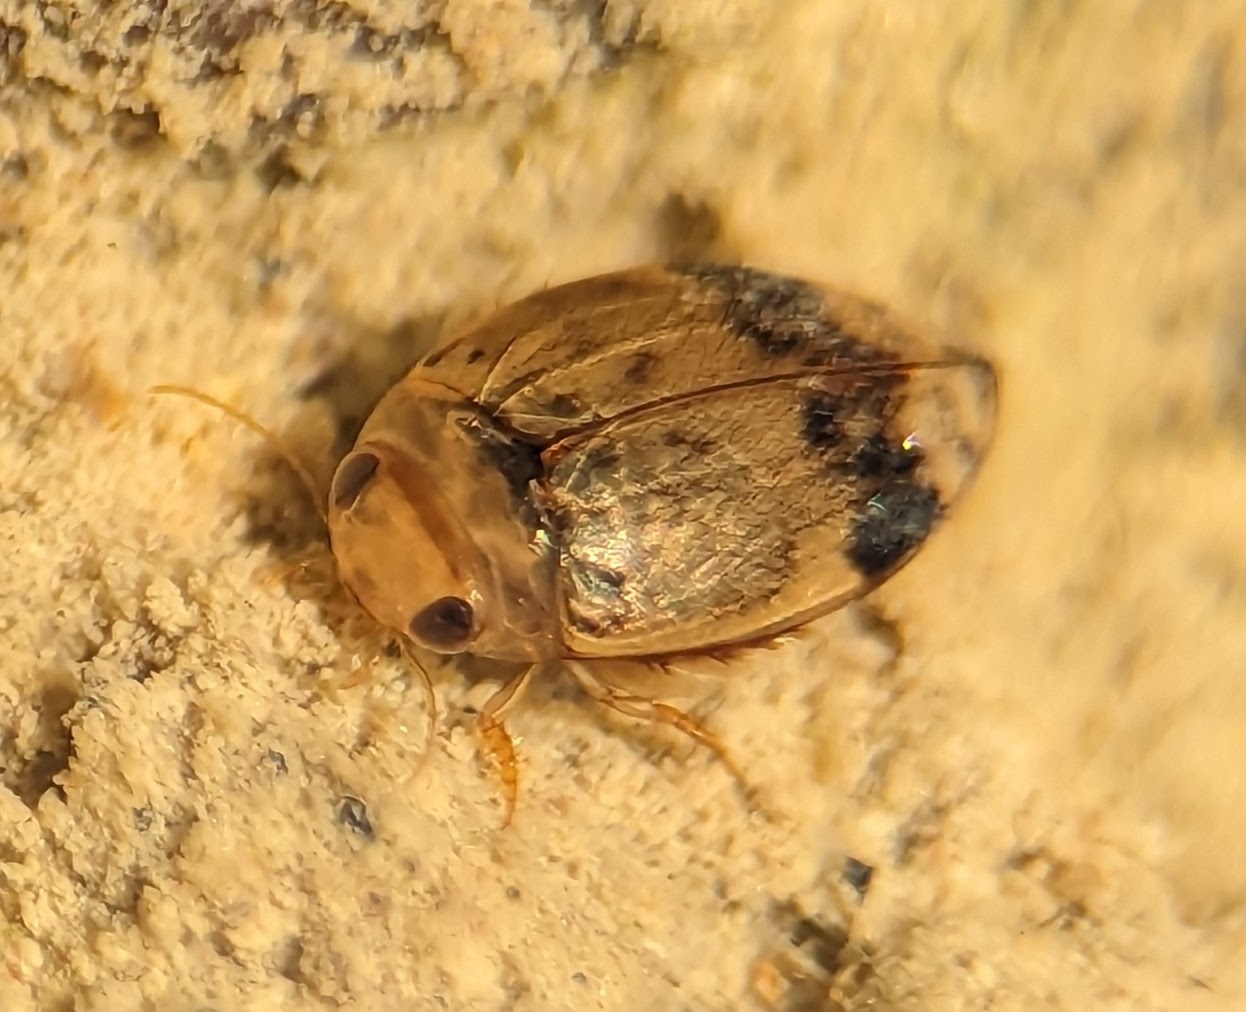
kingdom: Animalia
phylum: Arthropoda
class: Insecta
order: Coleoptera
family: Dytiscidae
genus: Laccophilus
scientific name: Laccophilus fasciatus
